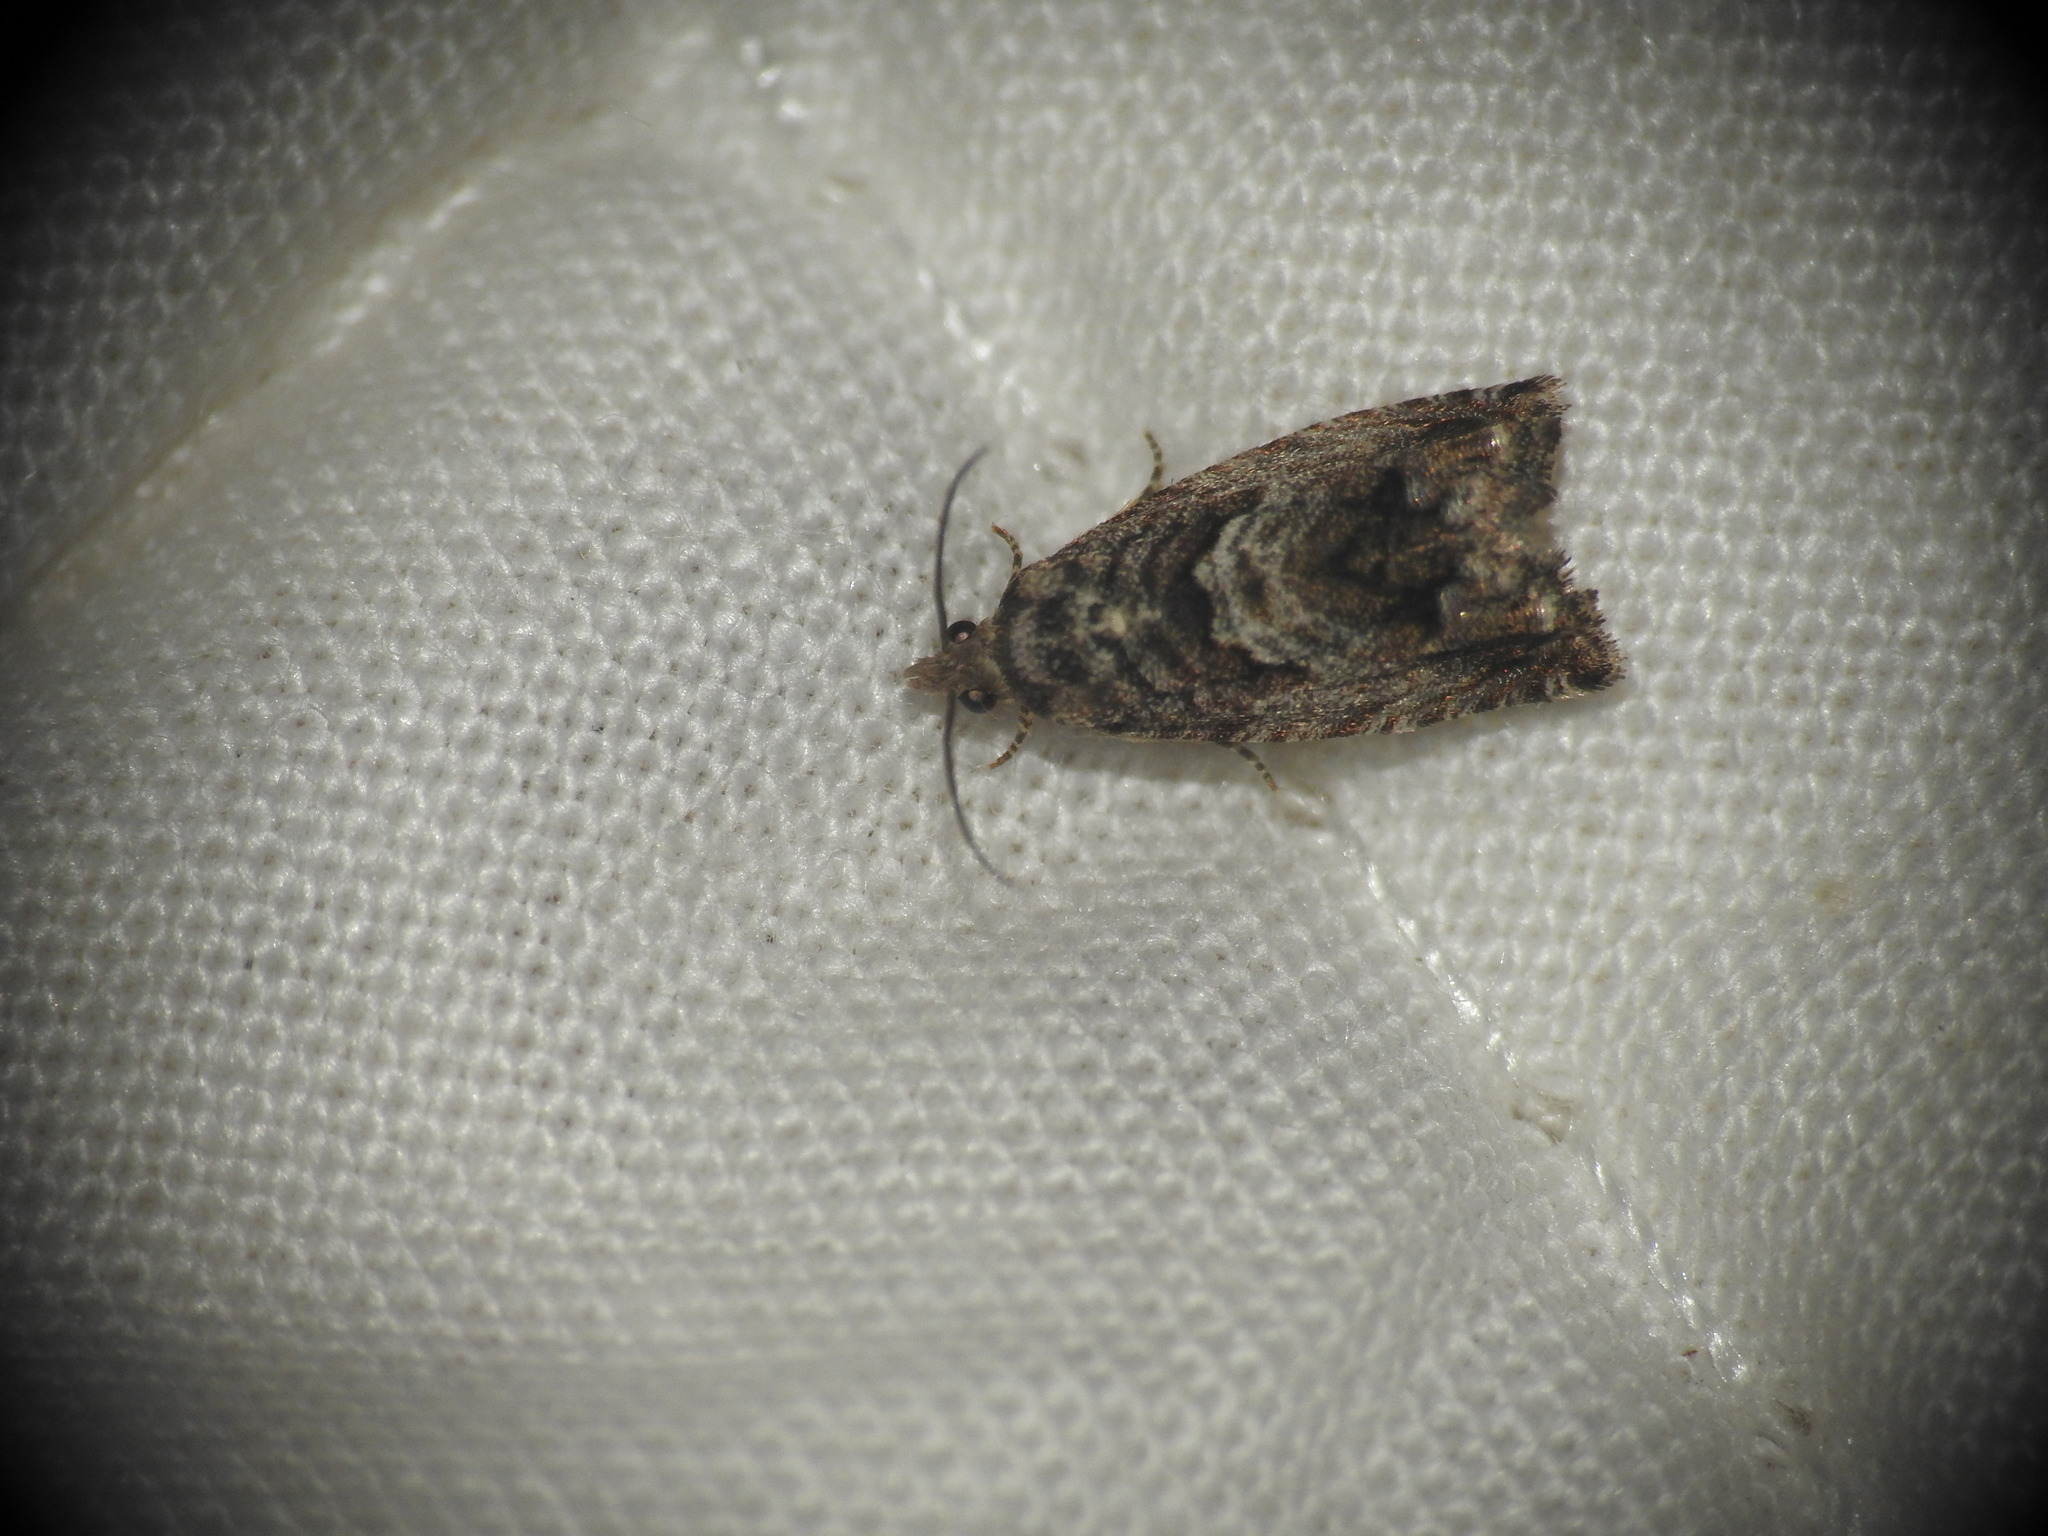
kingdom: Animalia
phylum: Arthropoda
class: Insecta
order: Lepidoptera
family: Tortricidae
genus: Cydia
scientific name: Cydia fagiglandana
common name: Large beech piercer
